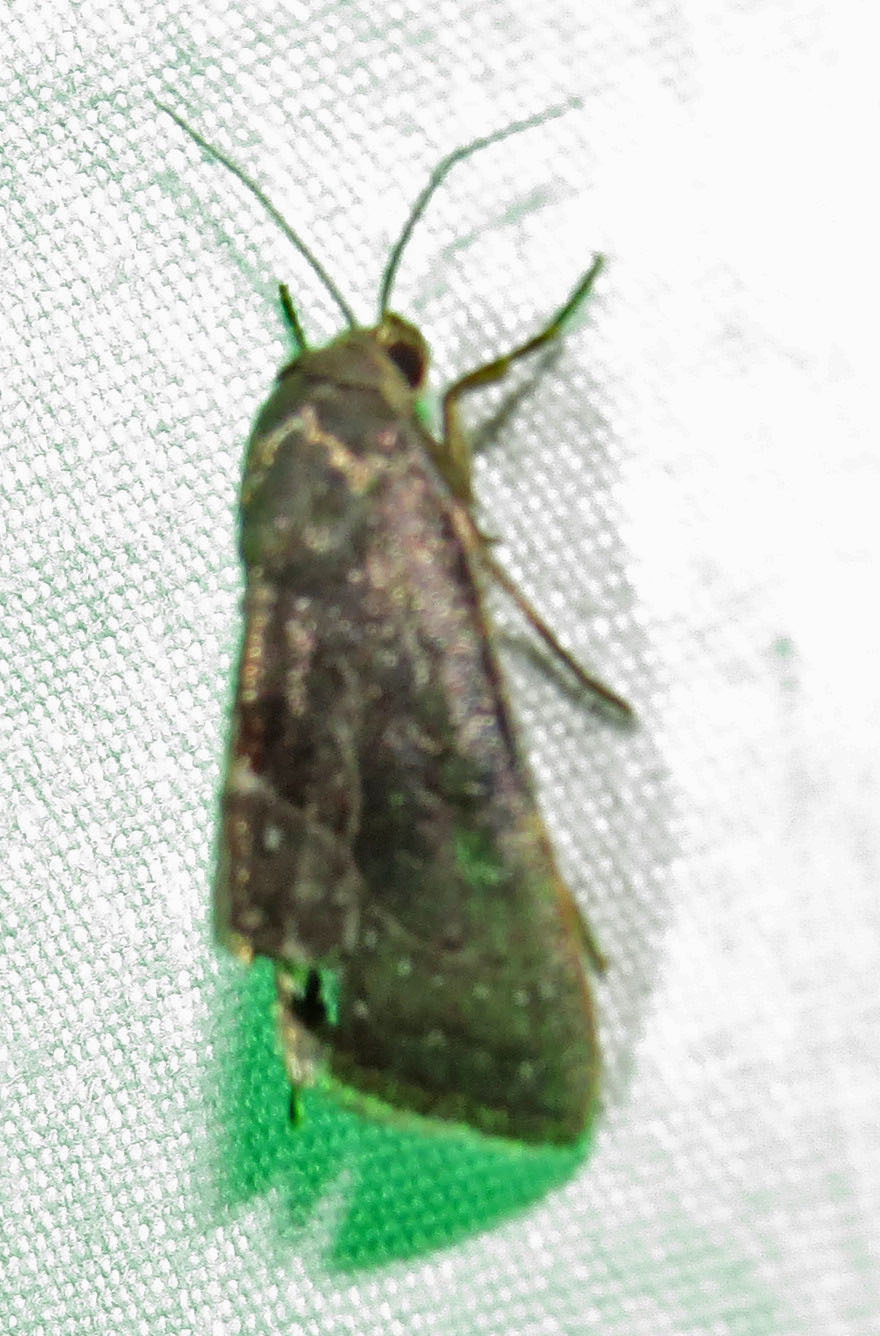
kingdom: Animalia
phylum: Arthropoda
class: Insecta
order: Lepidoptera
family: Noctuidae
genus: Galgula
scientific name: Galgula partita
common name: Wedgeling
